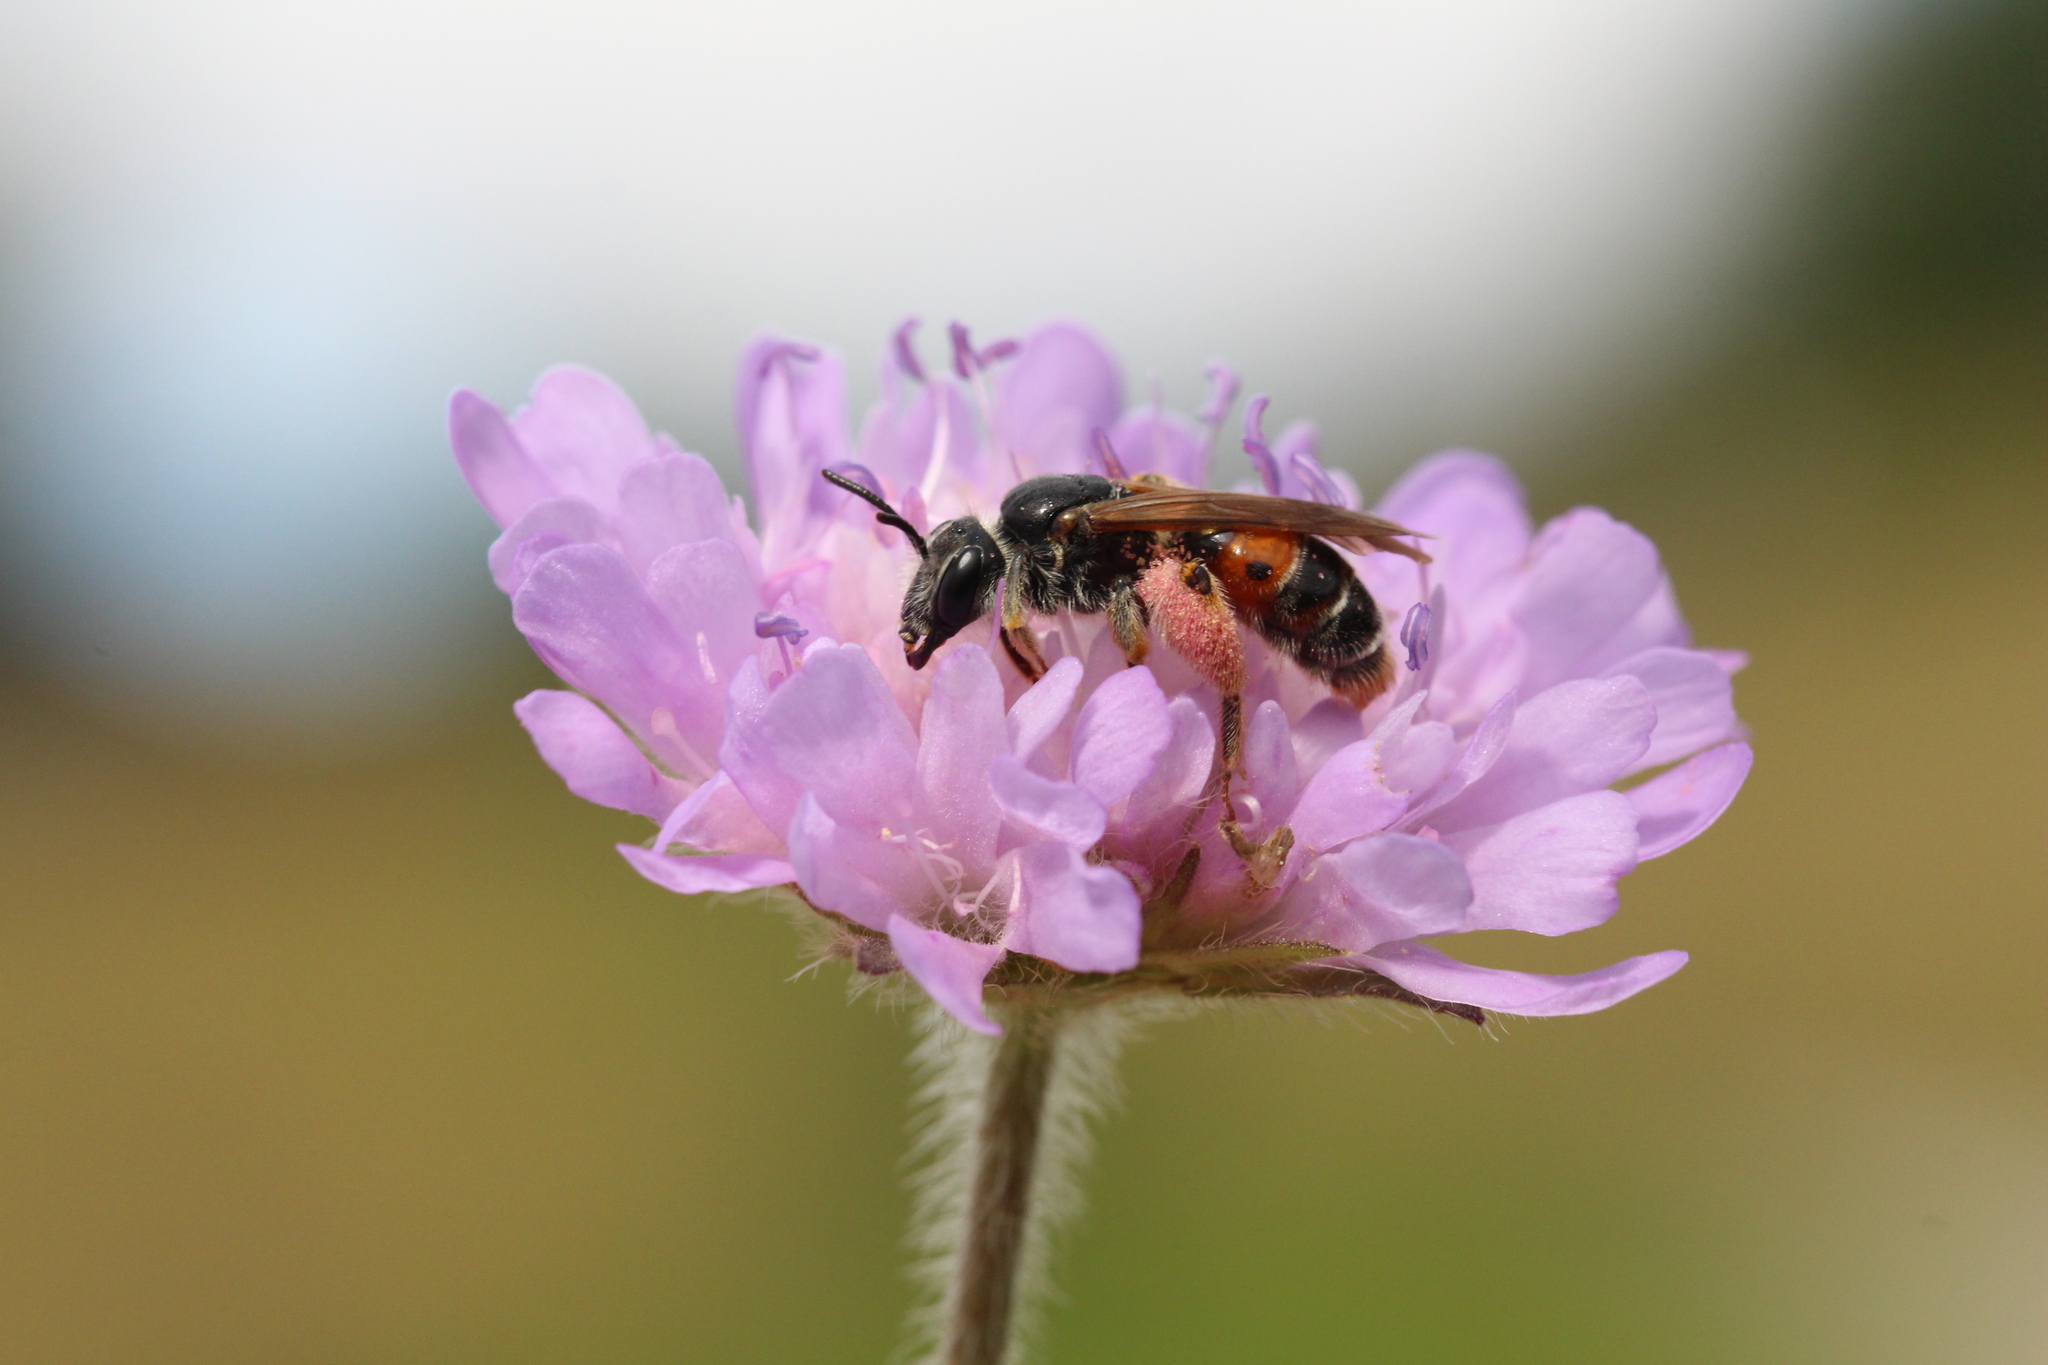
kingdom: Animalia
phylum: Arthropoda
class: Insecta
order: Hymenoptera
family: Andrenidae
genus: Andrena
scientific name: Andrena hattorfiana
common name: Large scabious mining bee
